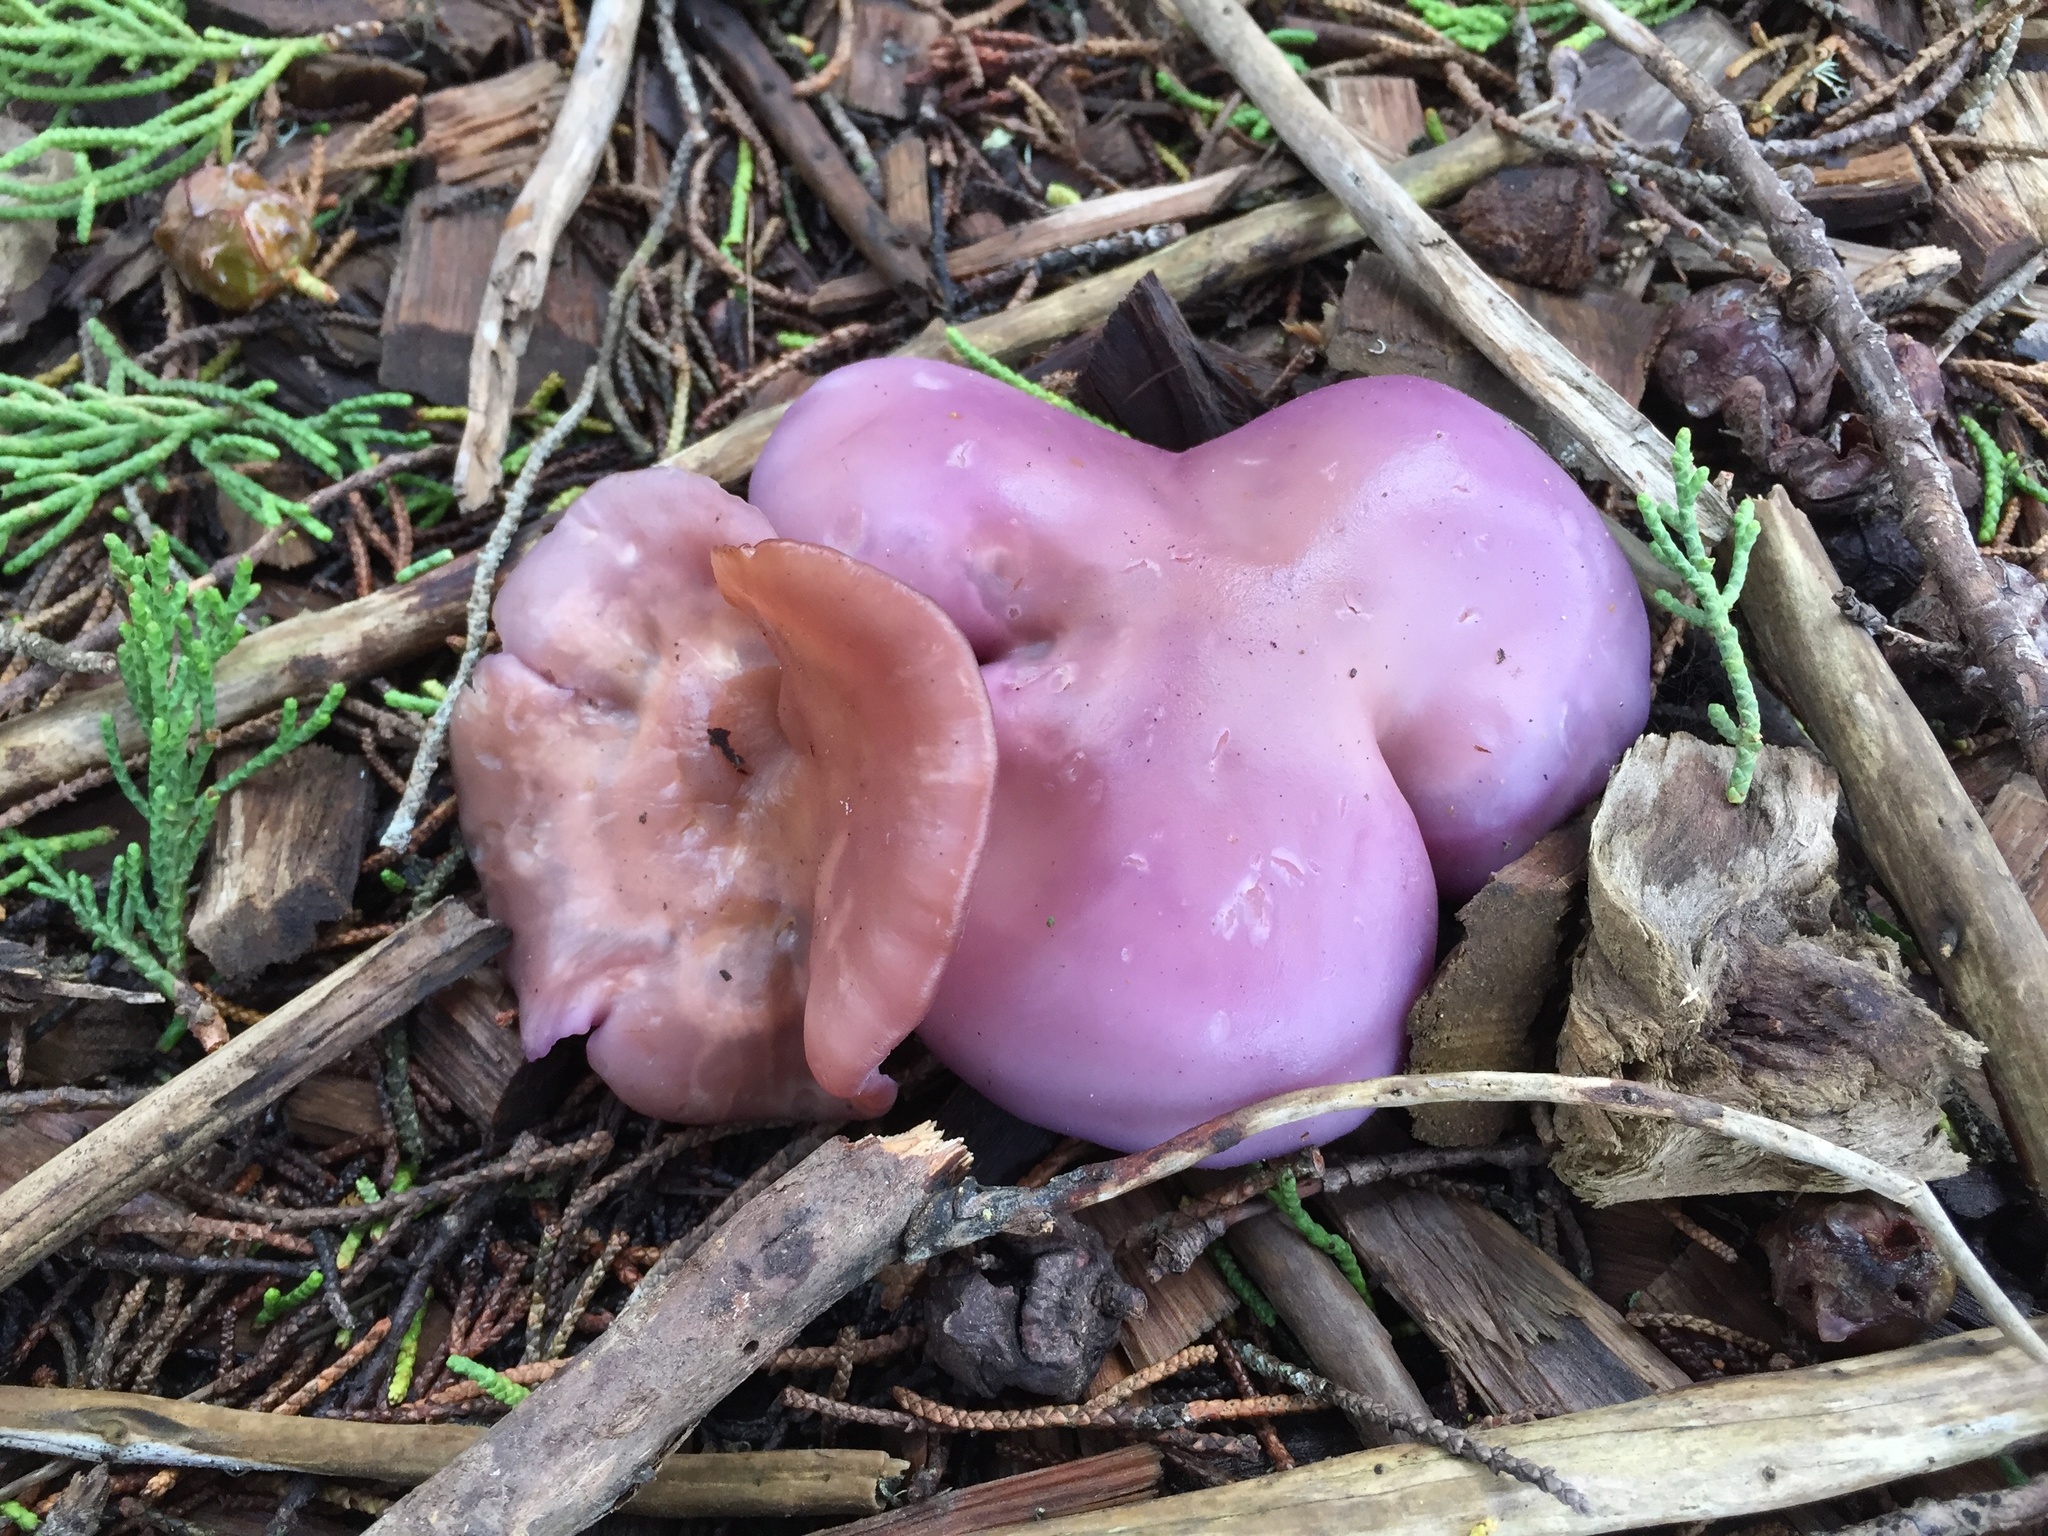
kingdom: Fungi
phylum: Basidiomycota
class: Agaricomycetes
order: Agaricales
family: Tricholomataceae
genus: Collybia
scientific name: Collybia
